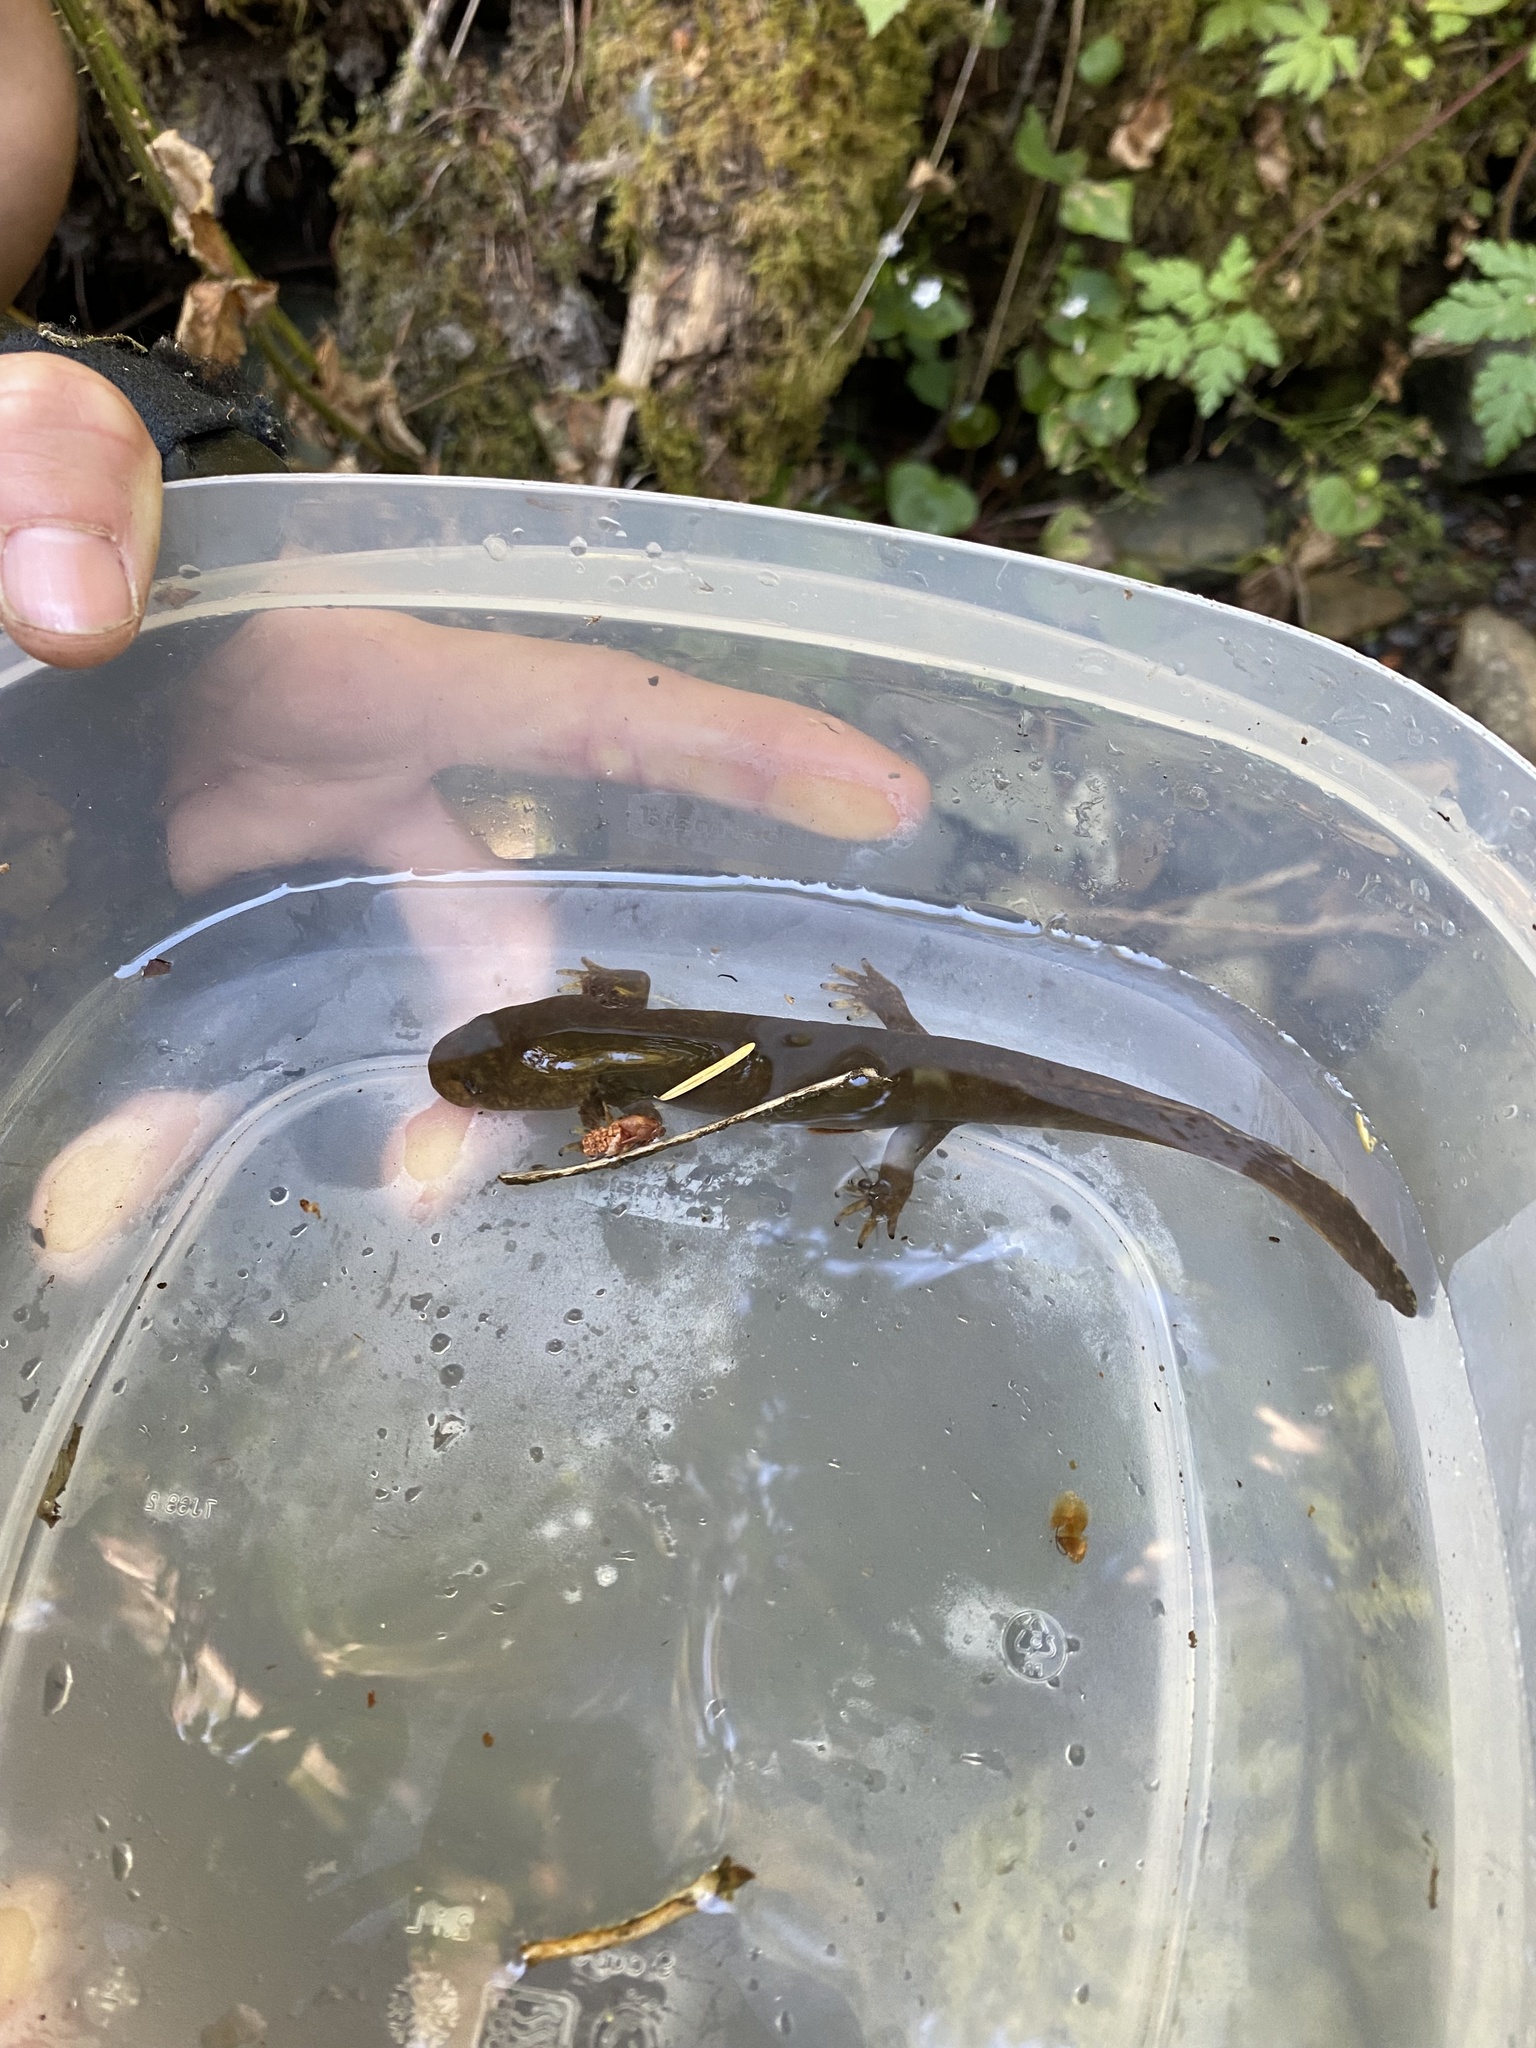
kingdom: Animalia
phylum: Chordata
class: Amphibia
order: Caudata
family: Ambystomatidae
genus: Dicamptodon
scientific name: Dicamptodon tenebrosus
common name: Coastal giant salamander
